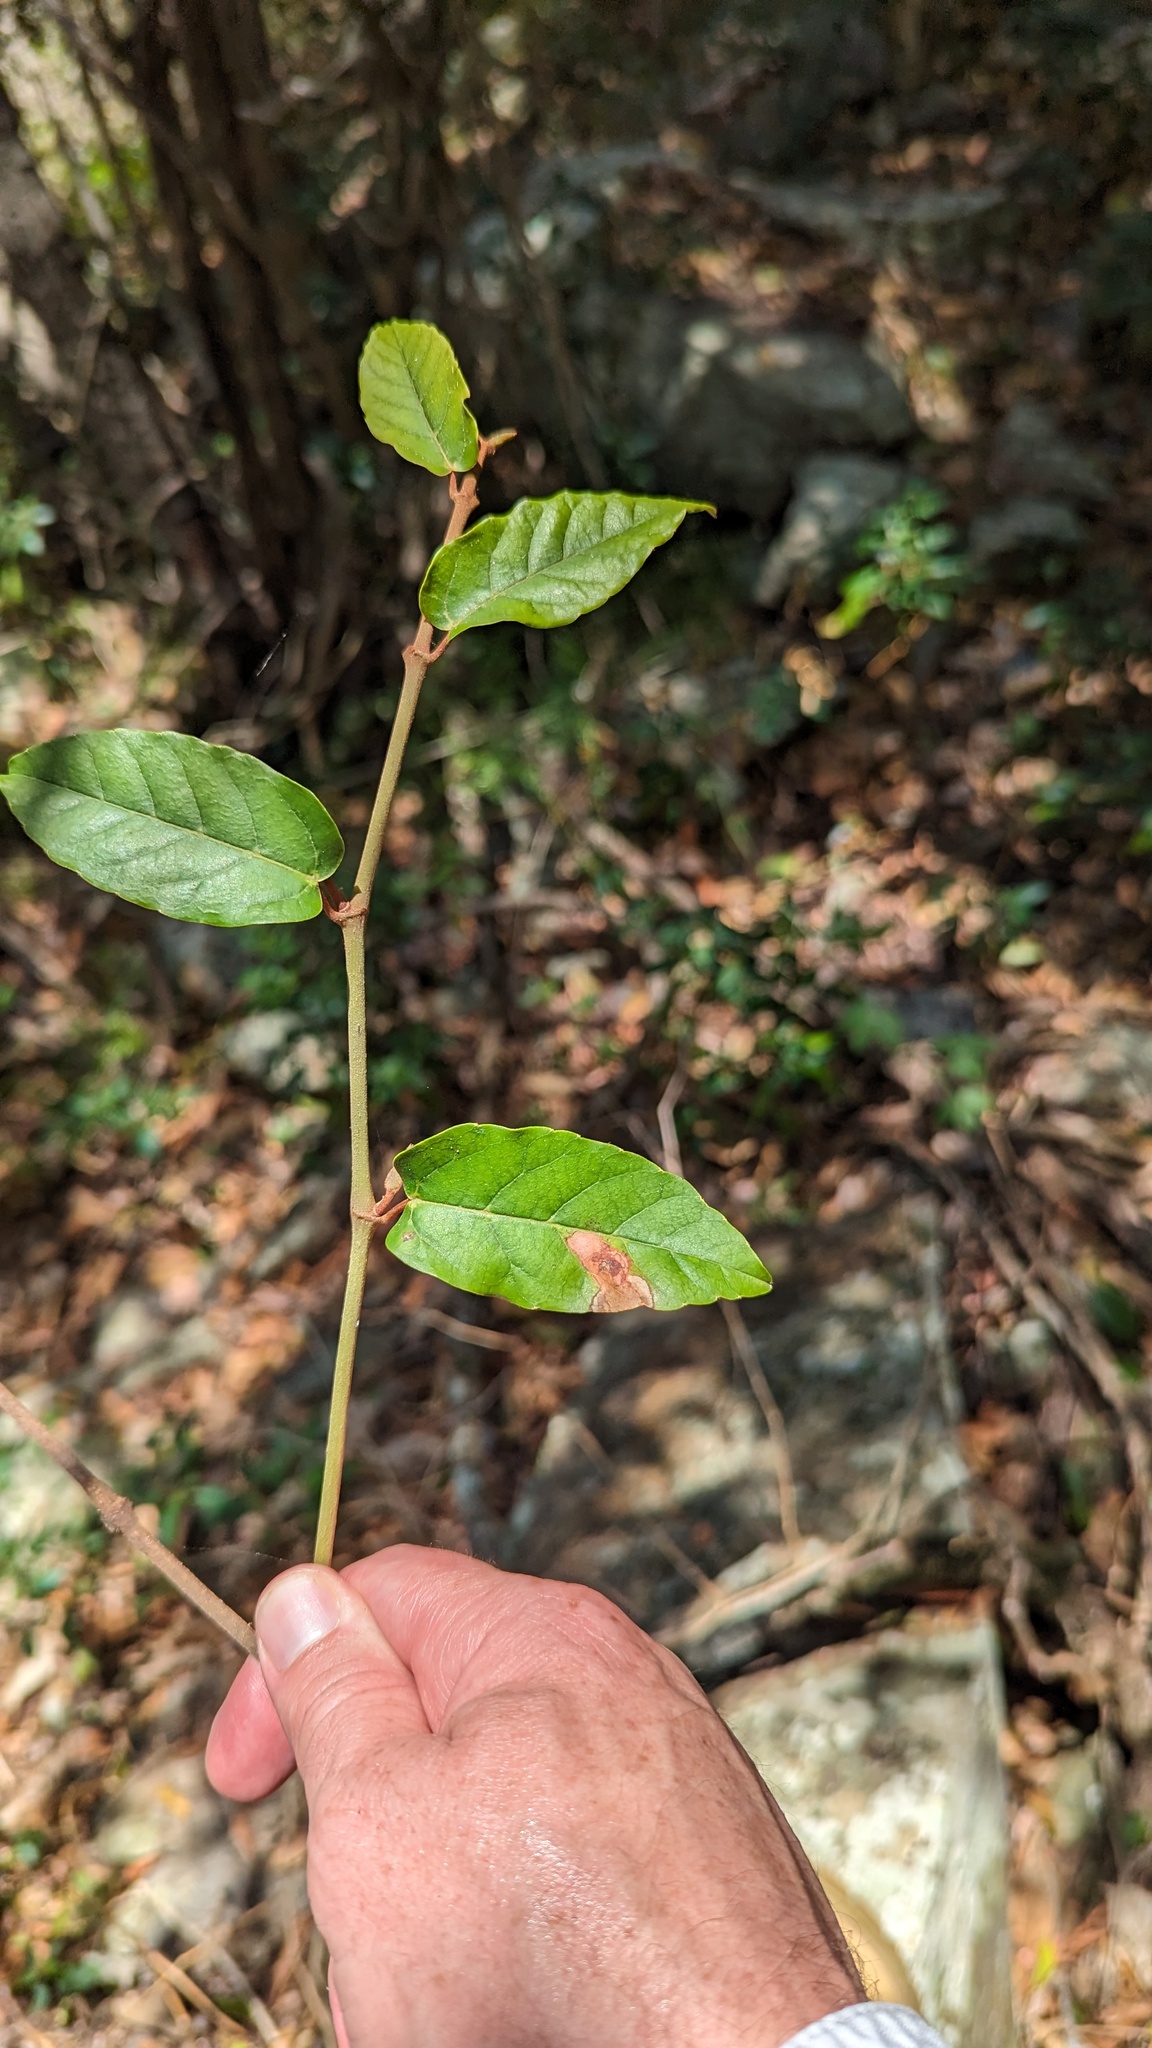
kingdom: Plantae
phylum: Tracheophyta
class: Magnoliopsida
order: Vitales
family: Vitaceae
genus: Cissus
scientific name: Cissus antarctica
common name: Kangaroo vine
